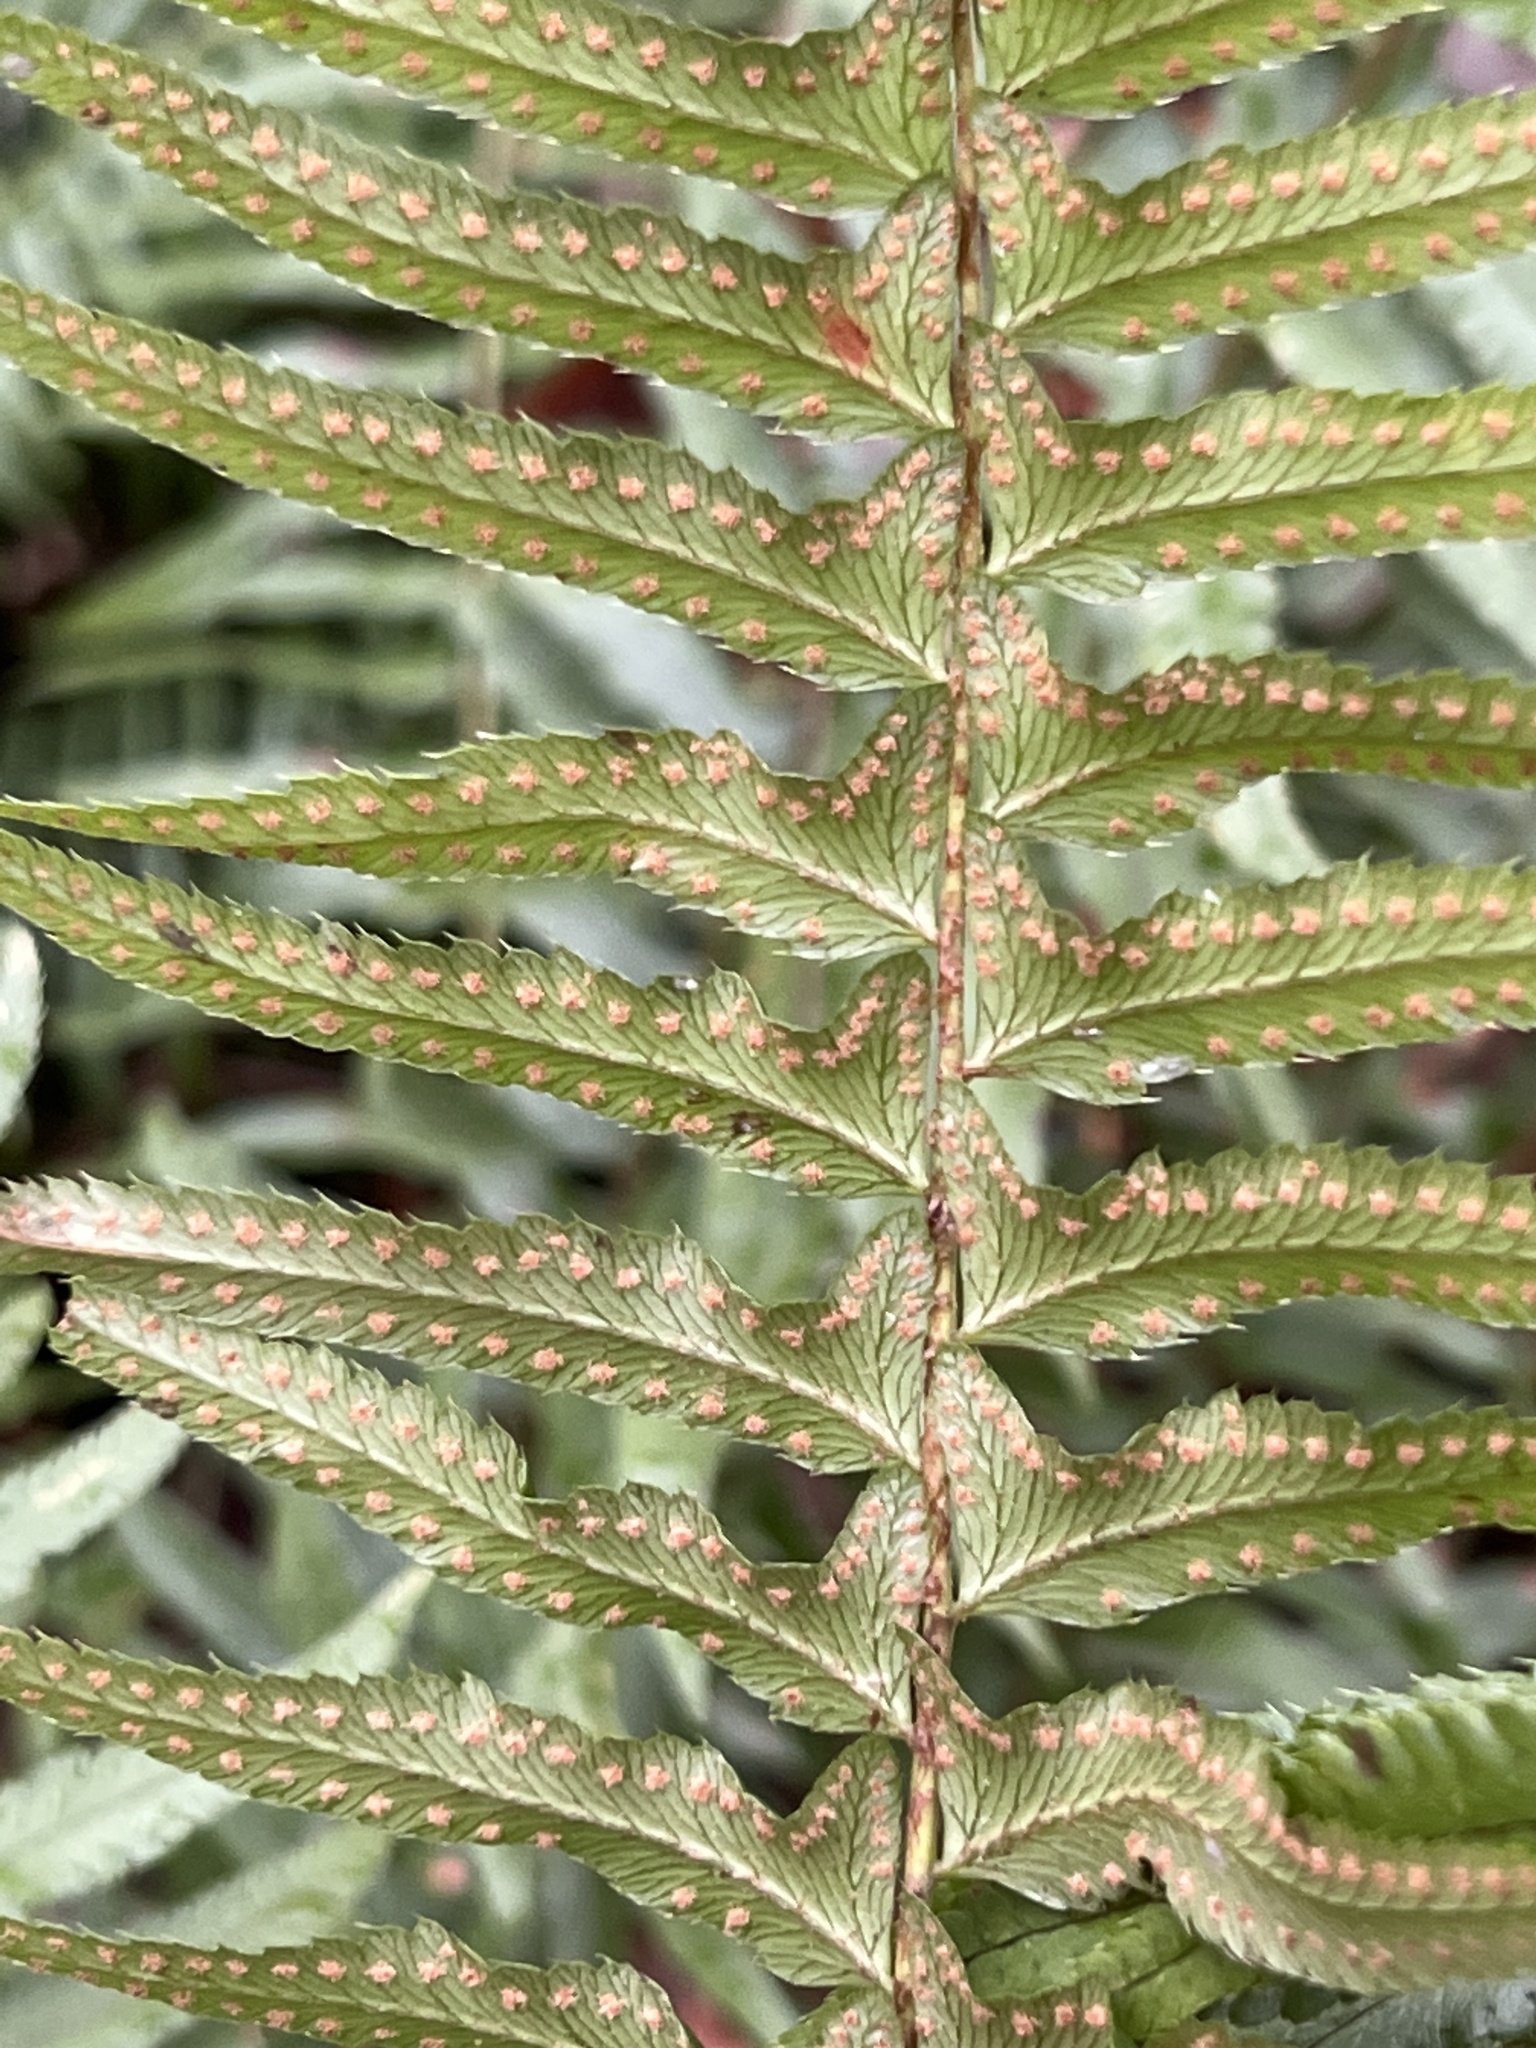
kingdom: Plantae
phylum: Tracheophyta
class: Polypodiopsida
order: Polypodiales
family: Dryopteridaceae
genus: Polystichum
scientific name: Polystichum munitum
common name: Western sword-fern
